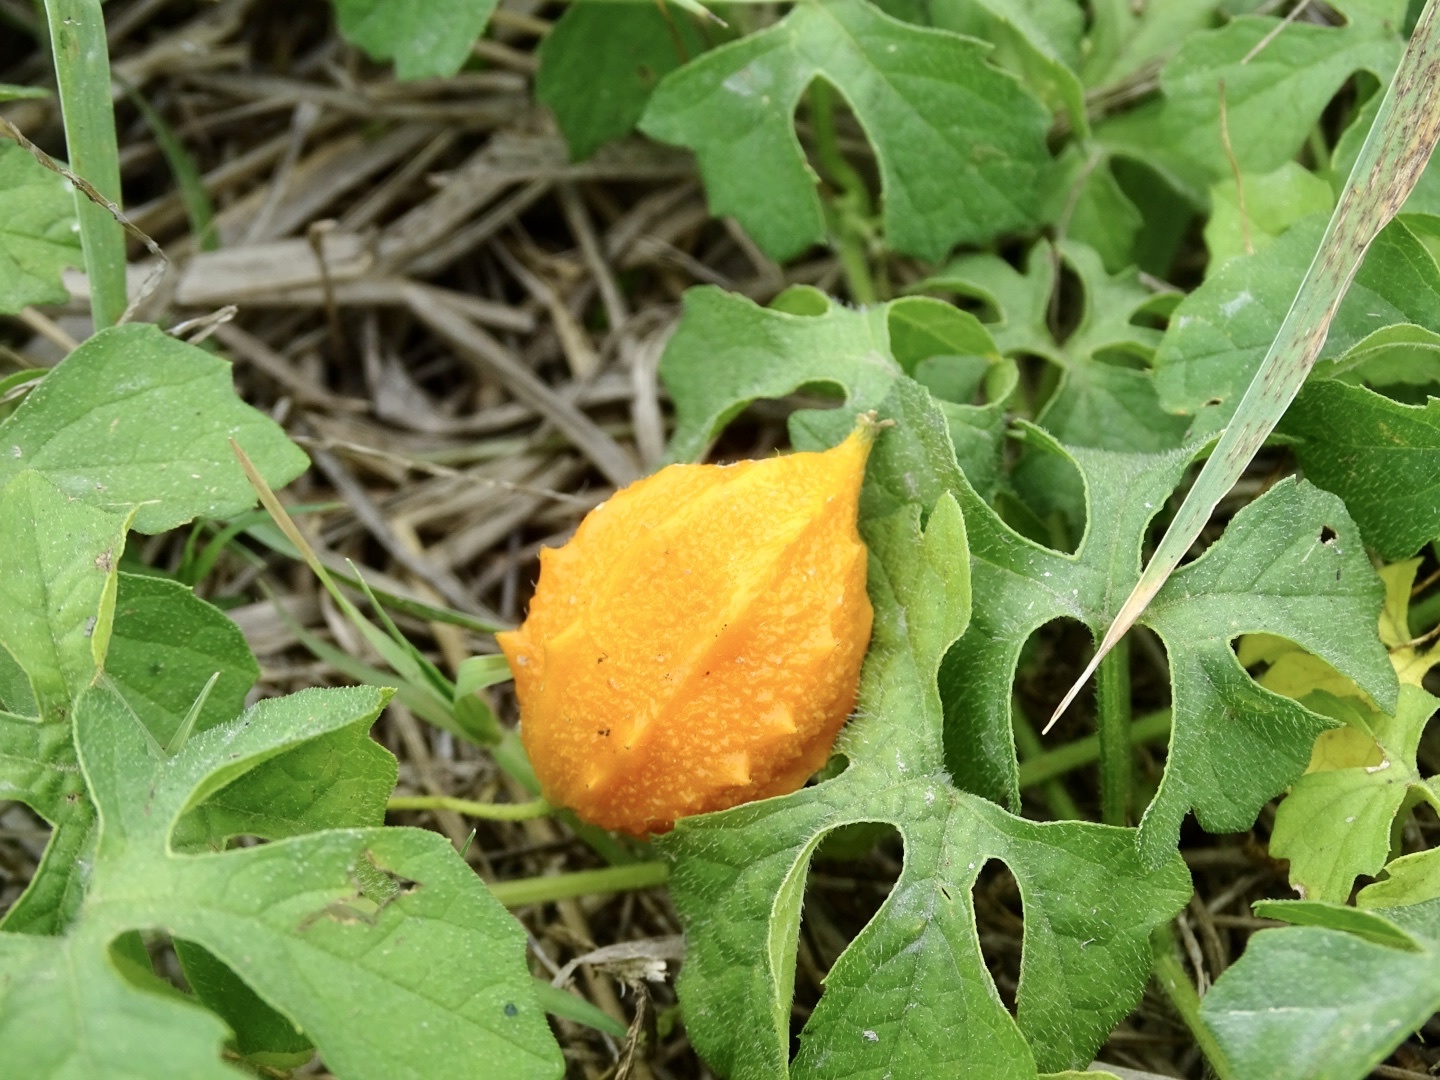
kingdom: Plantae
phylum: Tracheophyta
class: Magnoliopsida
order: Cucurbitales
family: Cucurbitaceae
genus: Momordica
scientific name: Momordica charantia
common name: Balsampear
